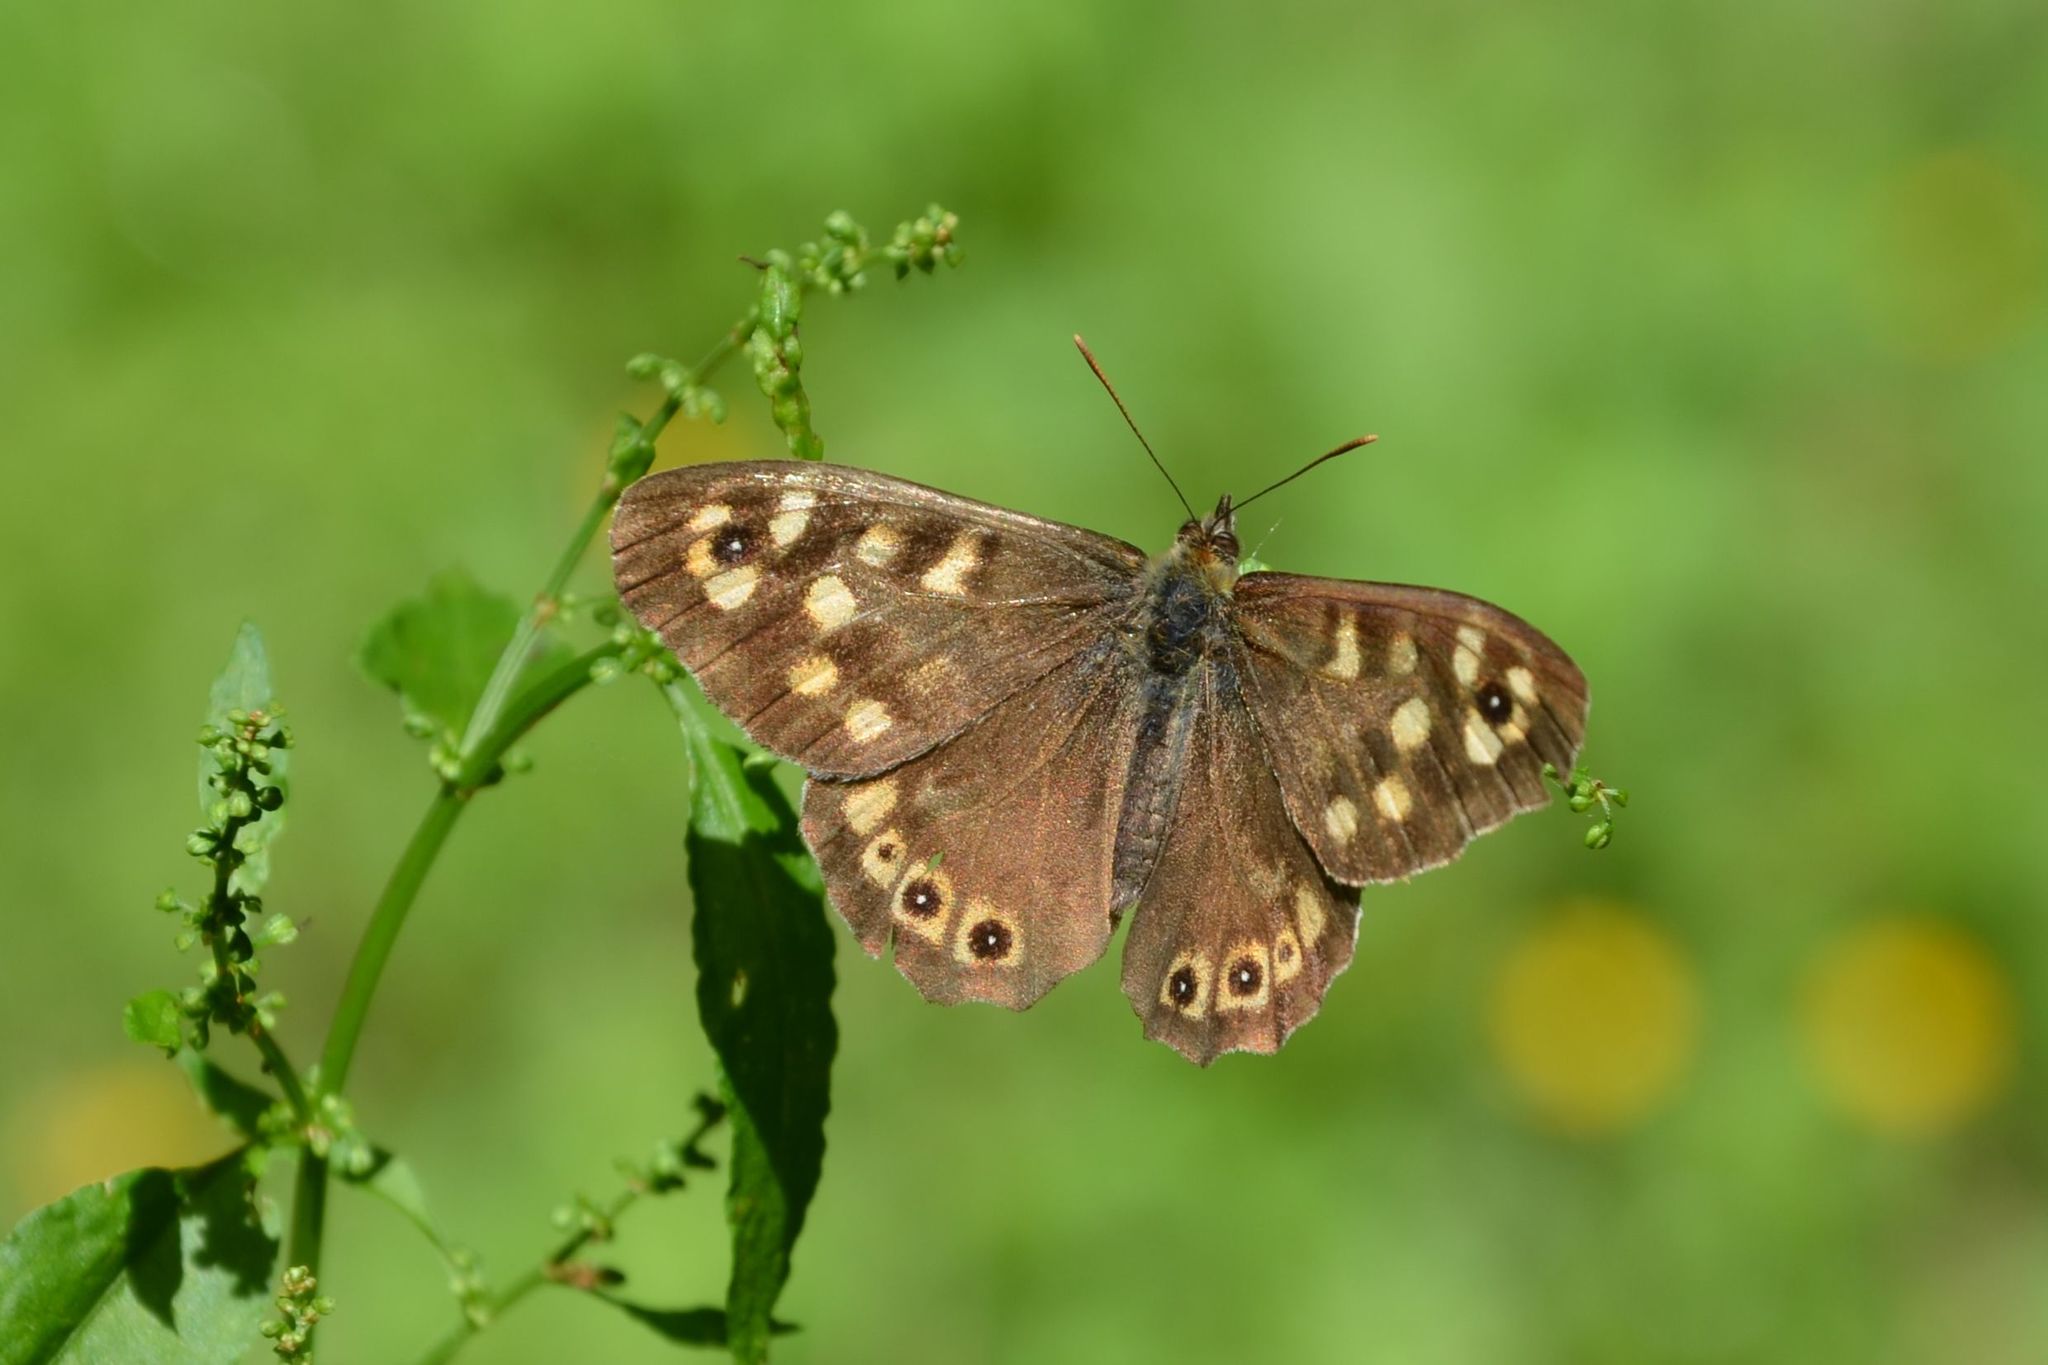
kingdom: Animalia
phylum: Arthropoda
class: Insecta
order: Lepidoptera
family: Nymphalidae
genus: Pararge
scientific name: Pararge aegeria
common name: Speckled wood
